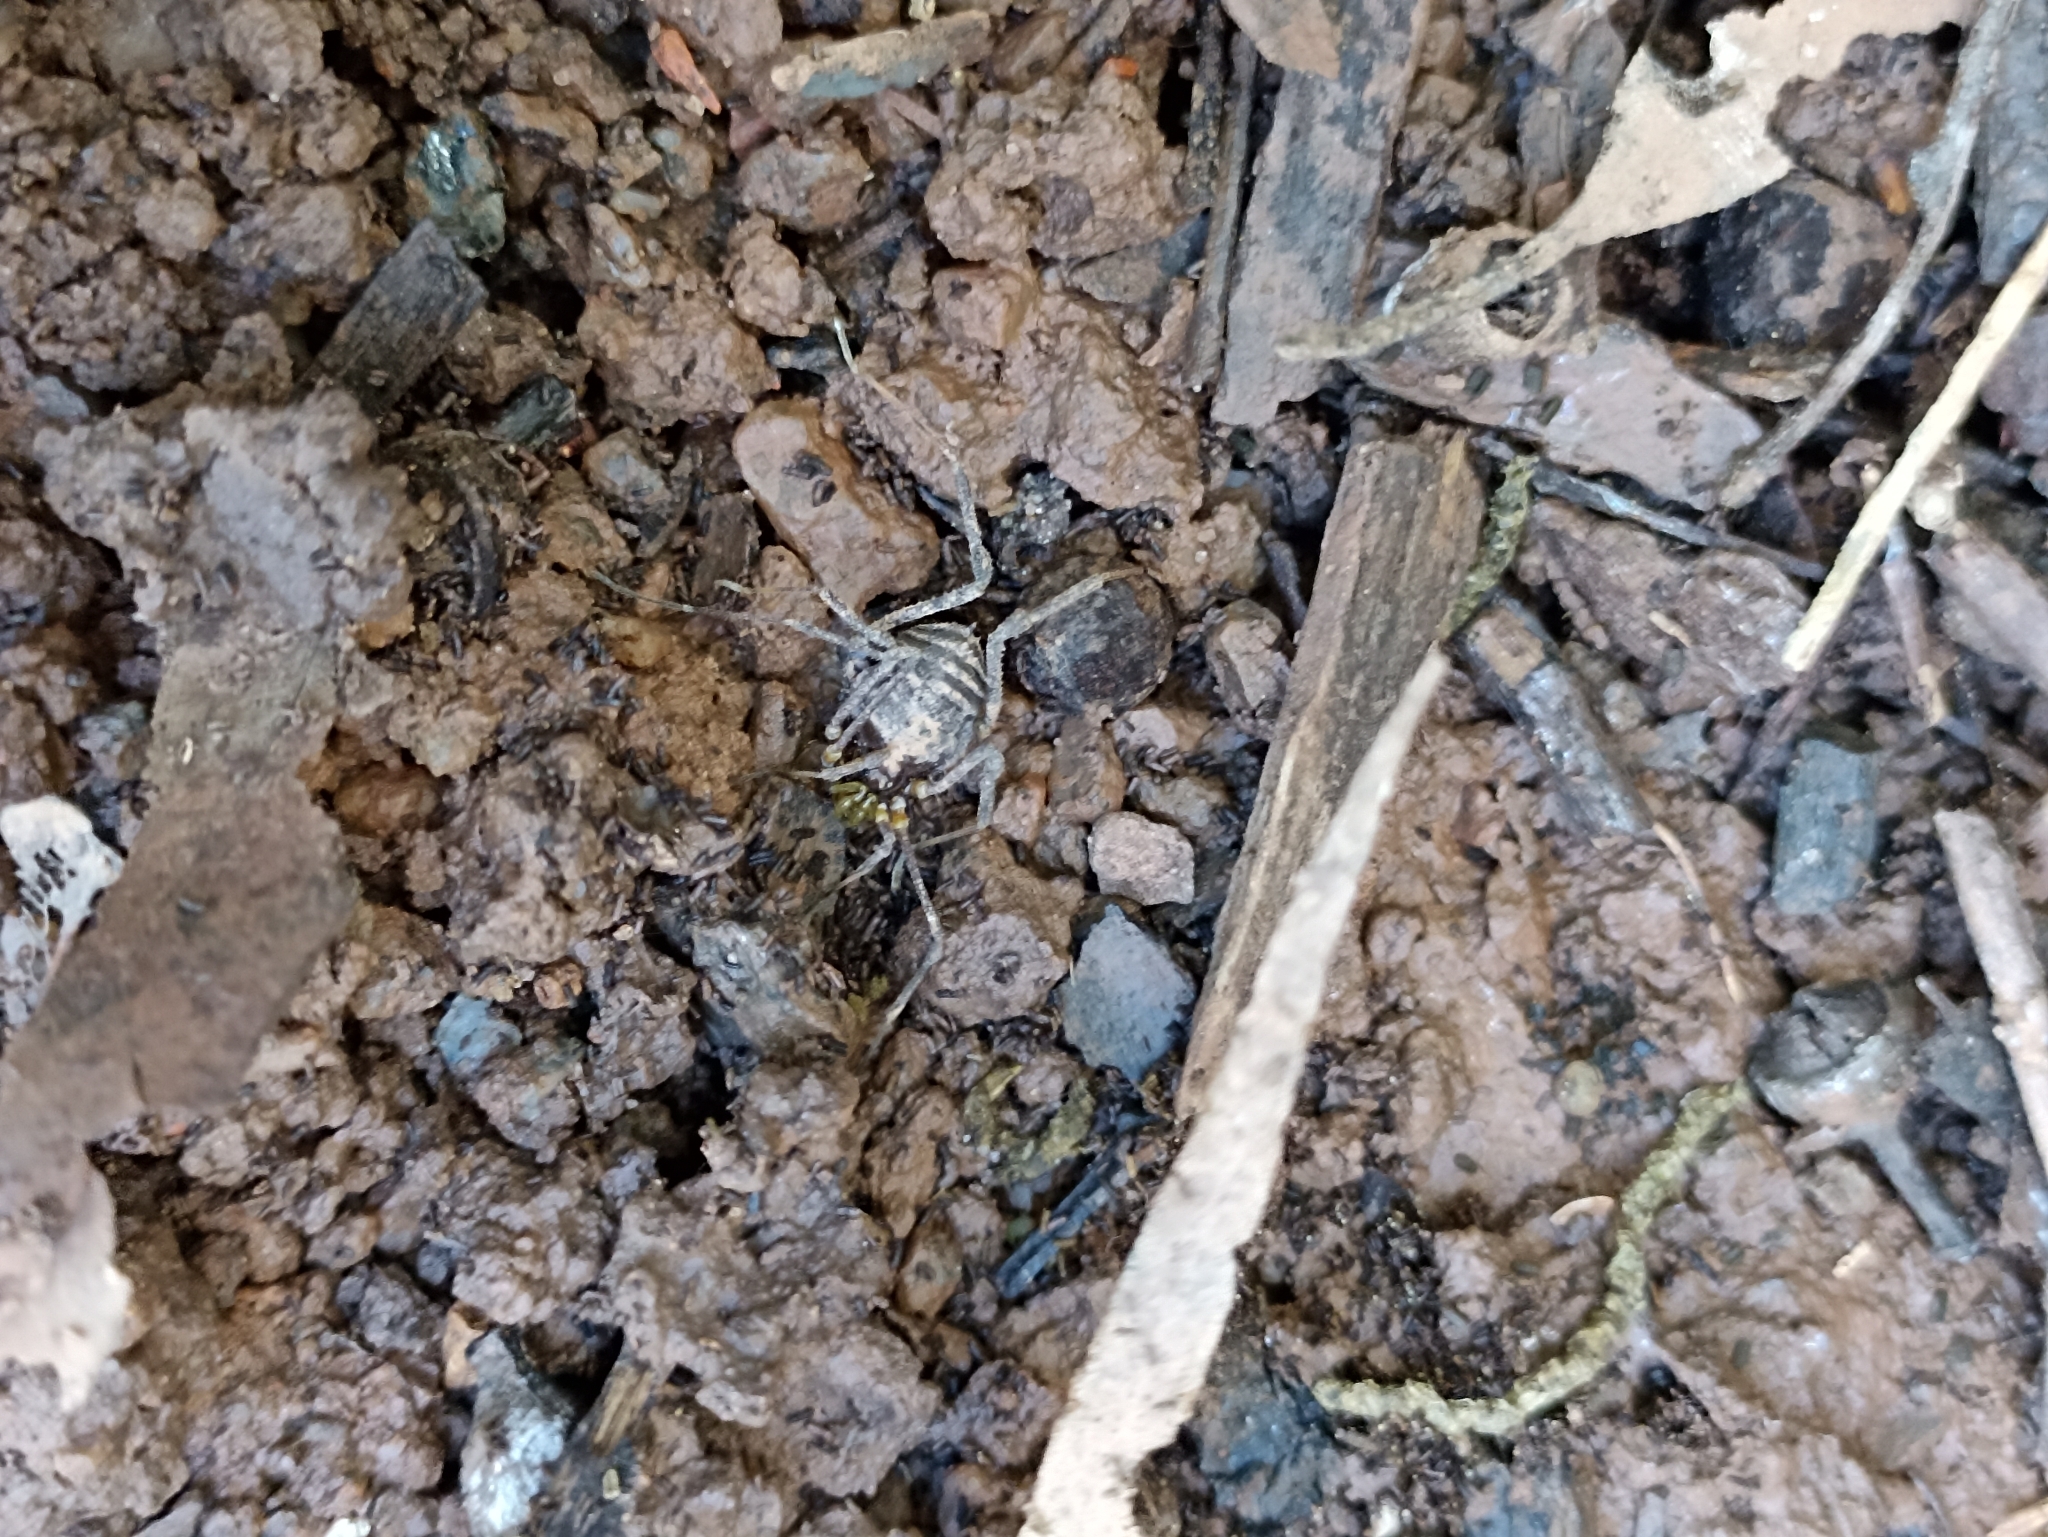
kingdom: Animalia
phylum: Arthropoda
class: Arachnida
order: Opiliones
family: Gonyleptidae
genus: Mischonyx
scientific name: Mischonyx squalidus
